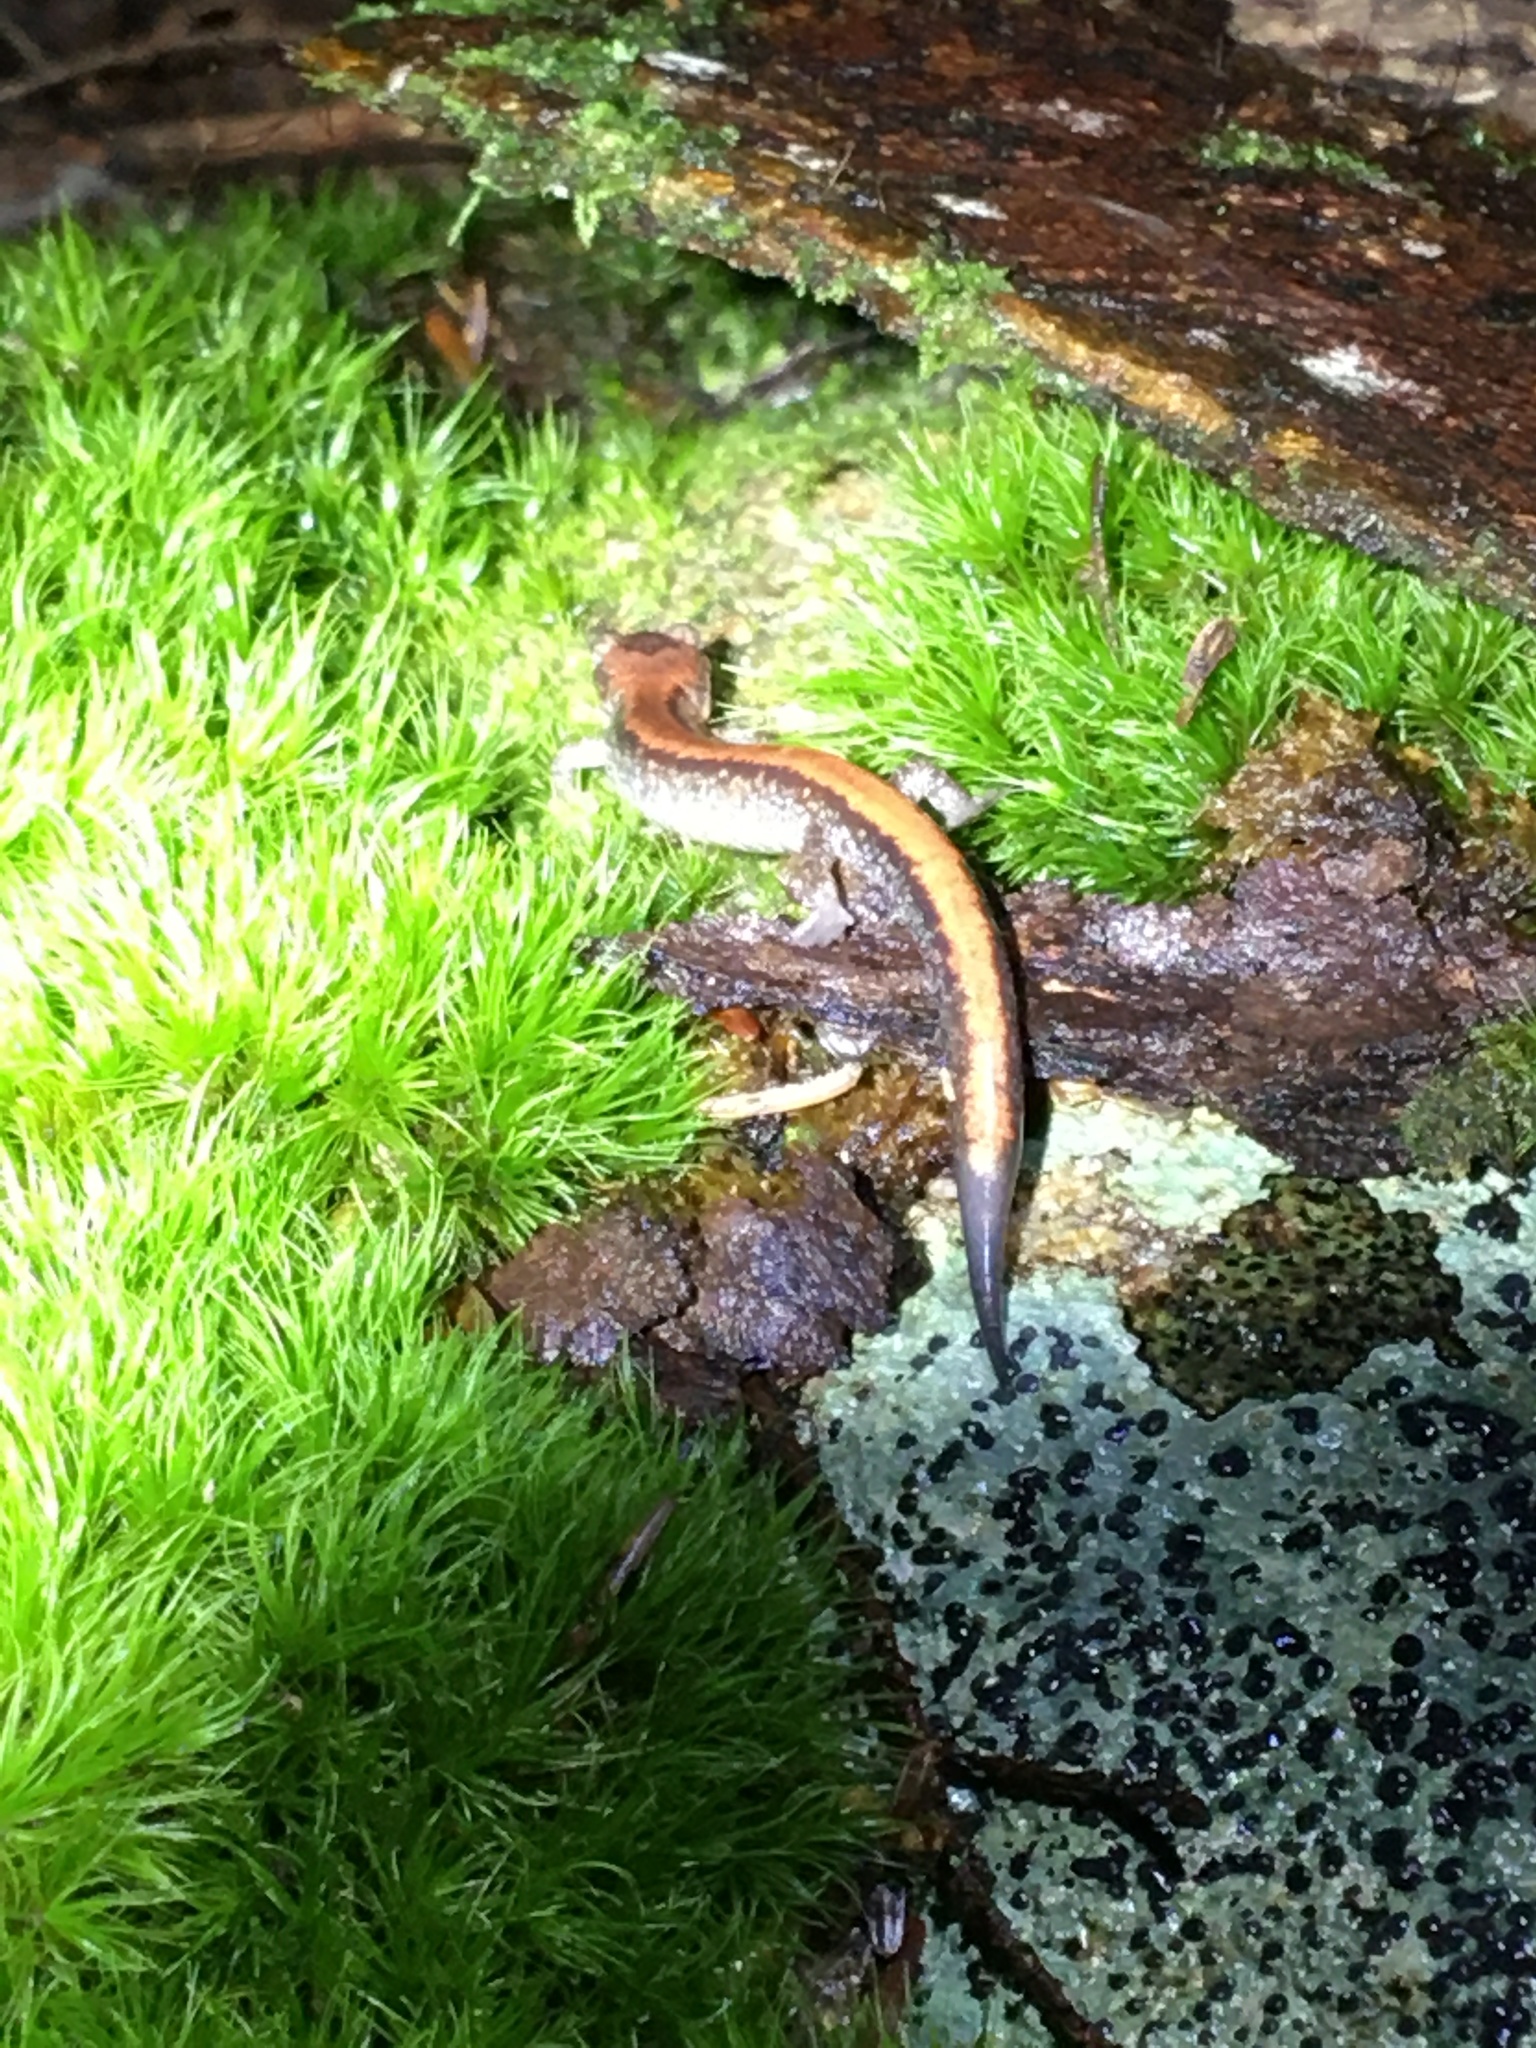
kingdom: Animalia
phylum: Chordata
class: Amphibia
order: Caudata
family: Plethodontidae
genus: Plethodon
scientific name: Plethodon cinereus
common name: Redback salamander
